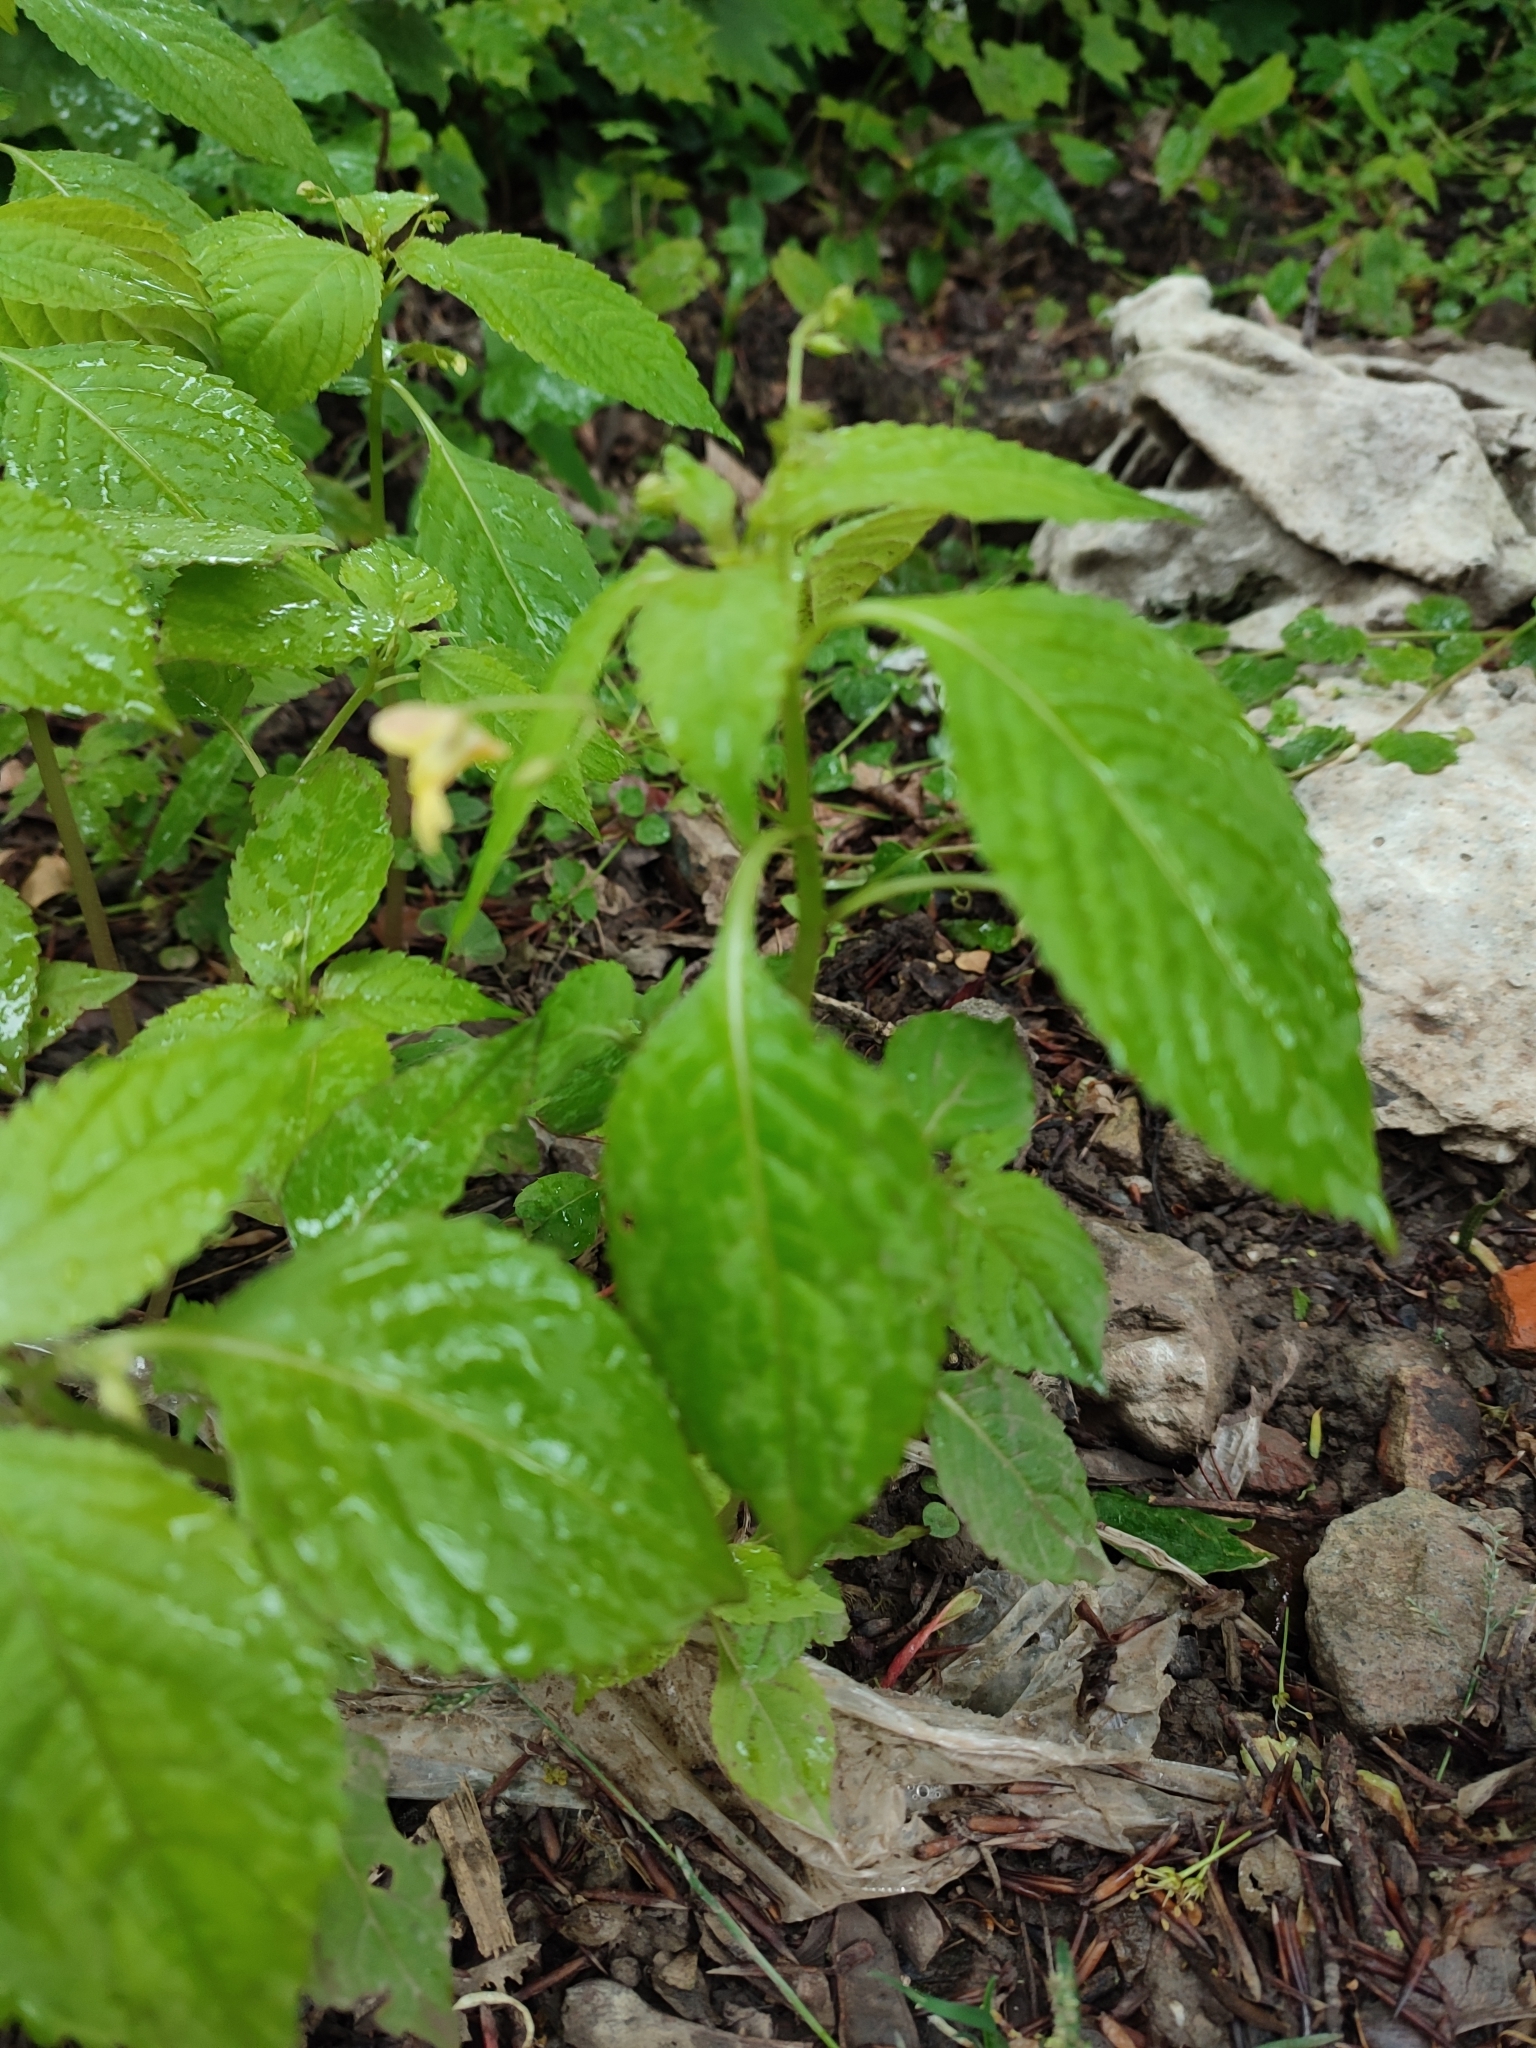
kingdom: Plantae
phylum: Tracheophyta
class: Magnoliopsida
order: Ericales
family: Balsaminaceae
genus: Impatiens
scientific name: Impatiens parviflora
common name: Small balsam
